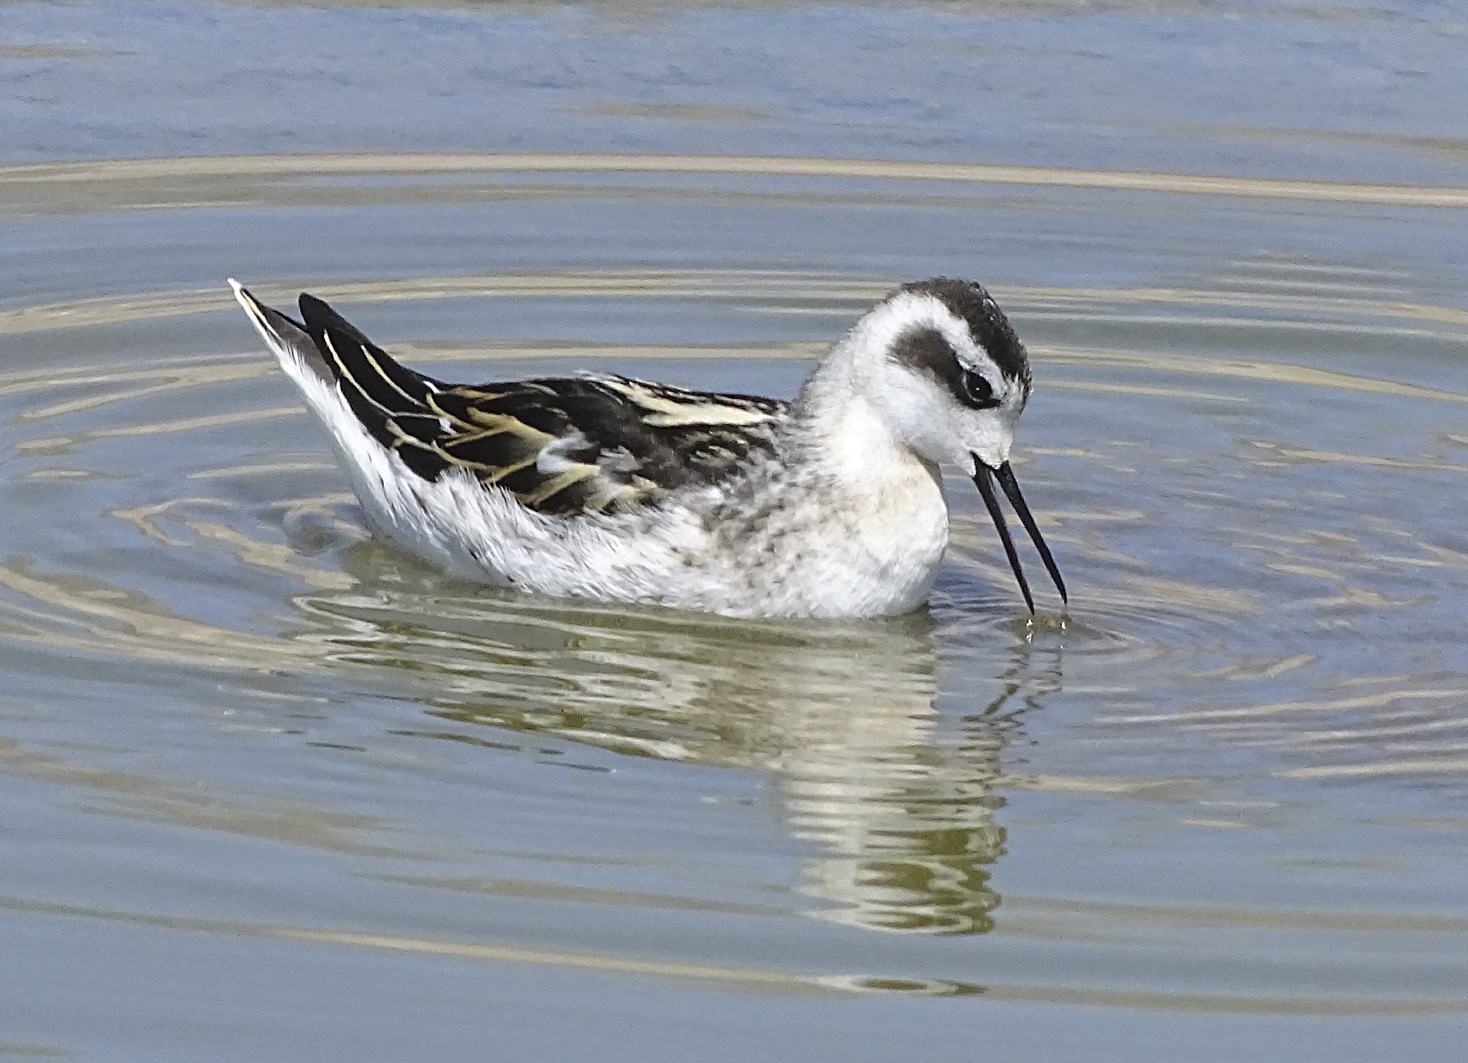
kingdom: Animalia
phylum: Chordata
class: Aves
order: Charadriiformes
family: Scolopacidae
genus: Phalaropus
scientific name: Phalaropus lobatus
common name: Red-necked phalarope
